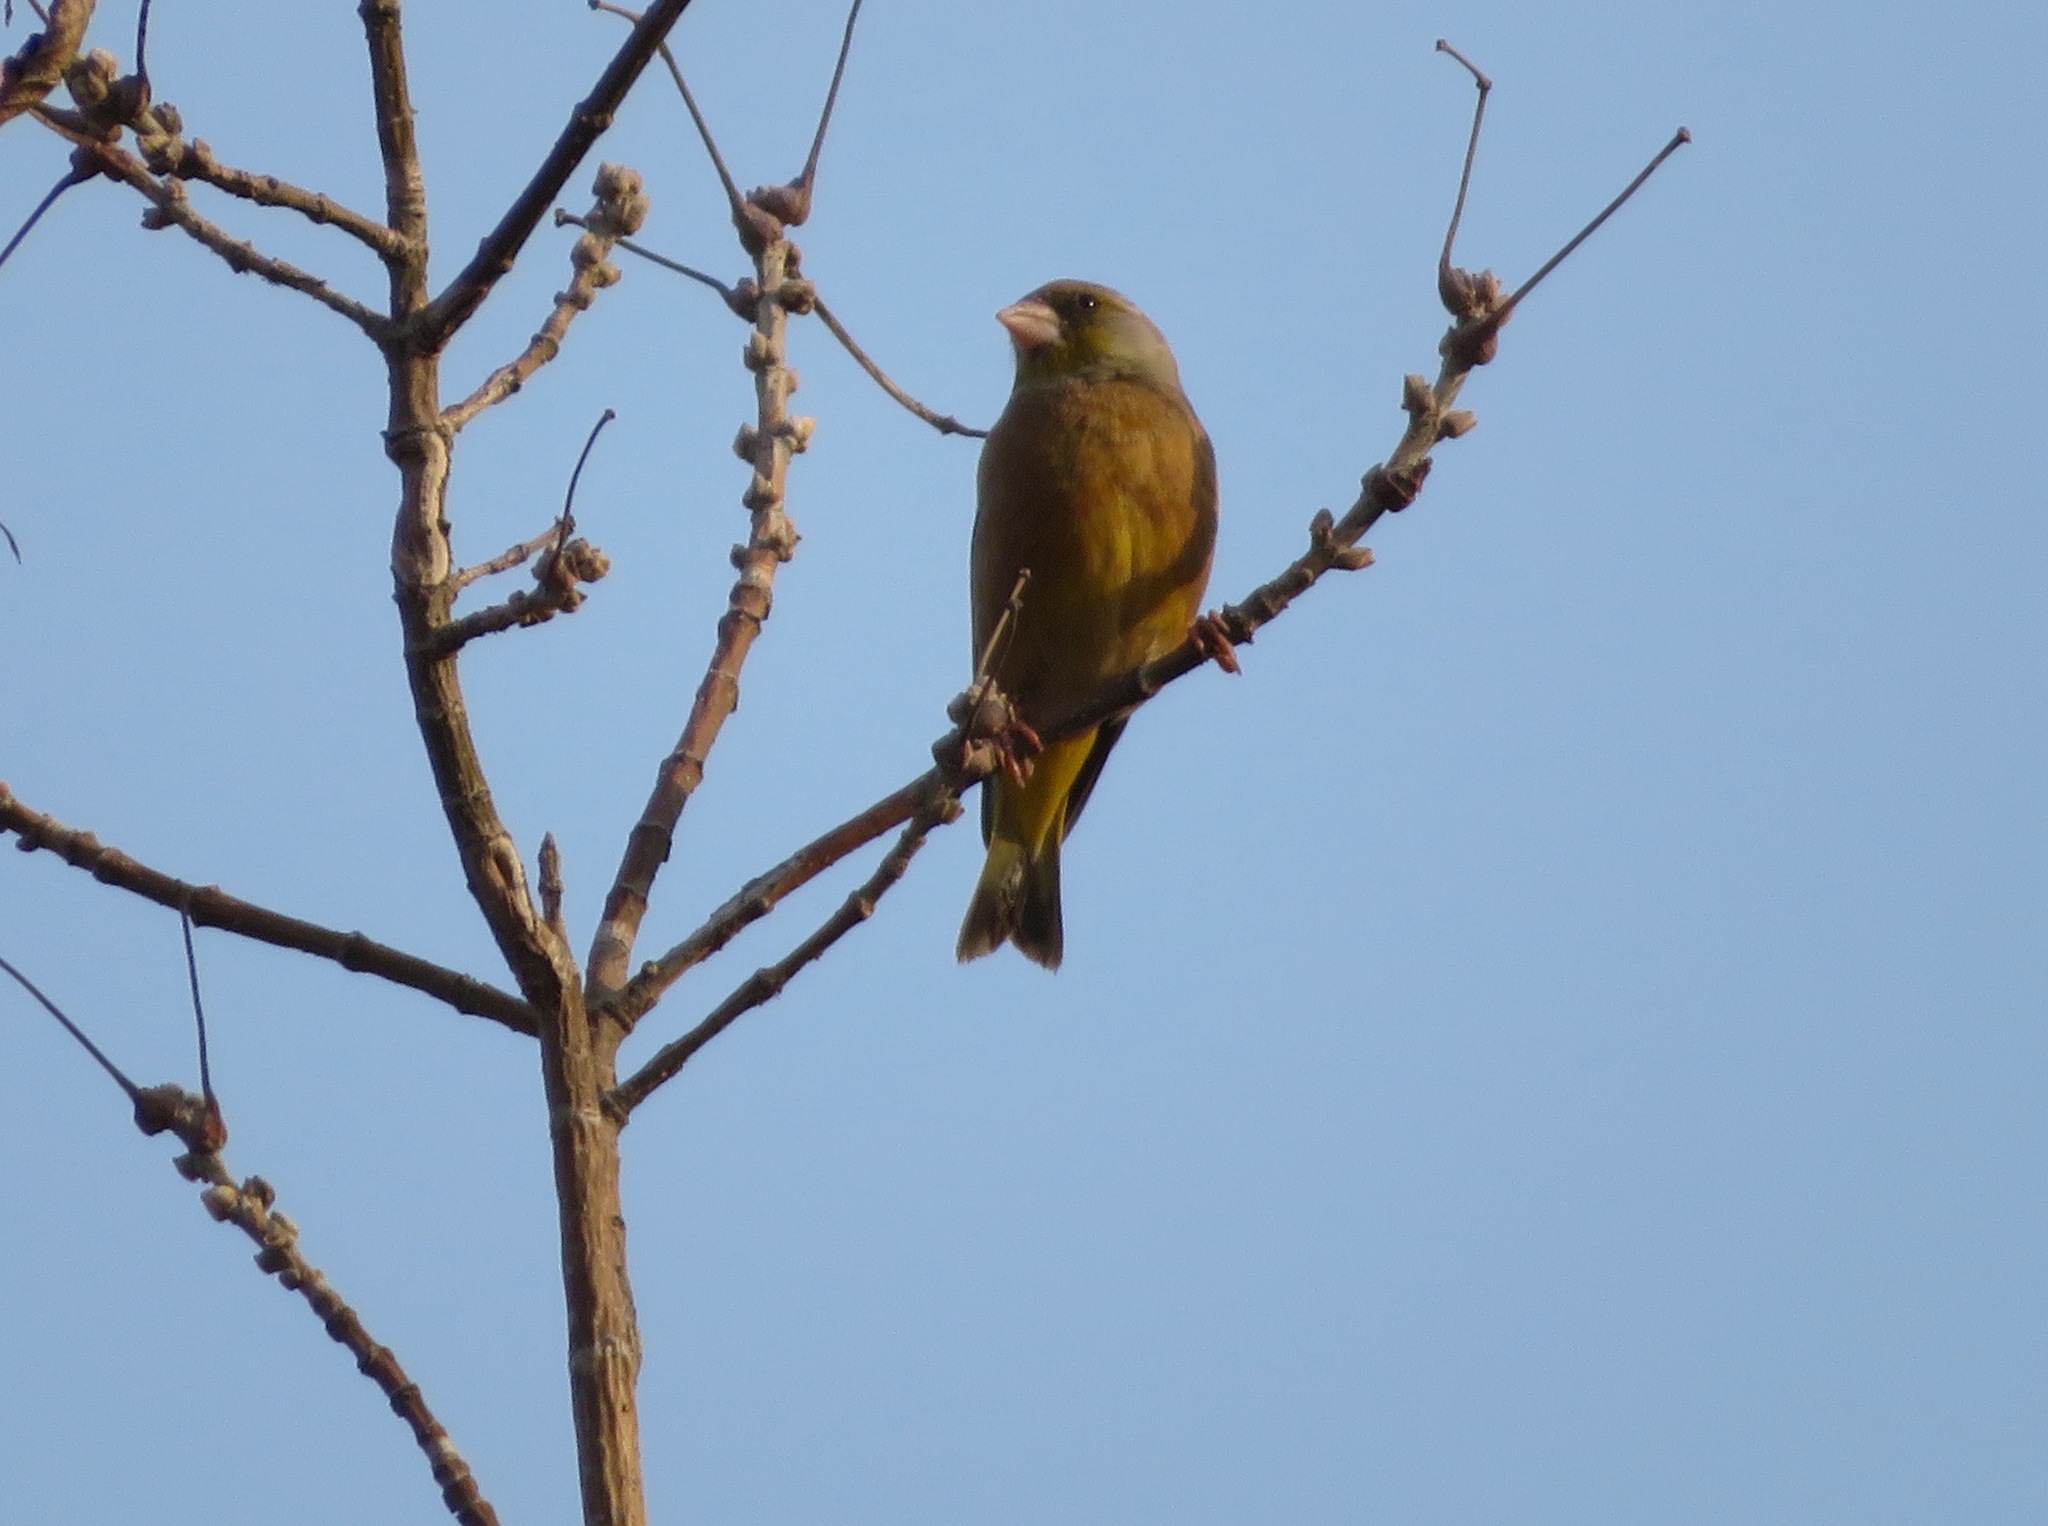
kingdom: Plantae
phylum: Tracheophyta
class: Liliopsida
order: Poales
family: Poaceae
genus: Chloris
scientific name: Chloris sinica
